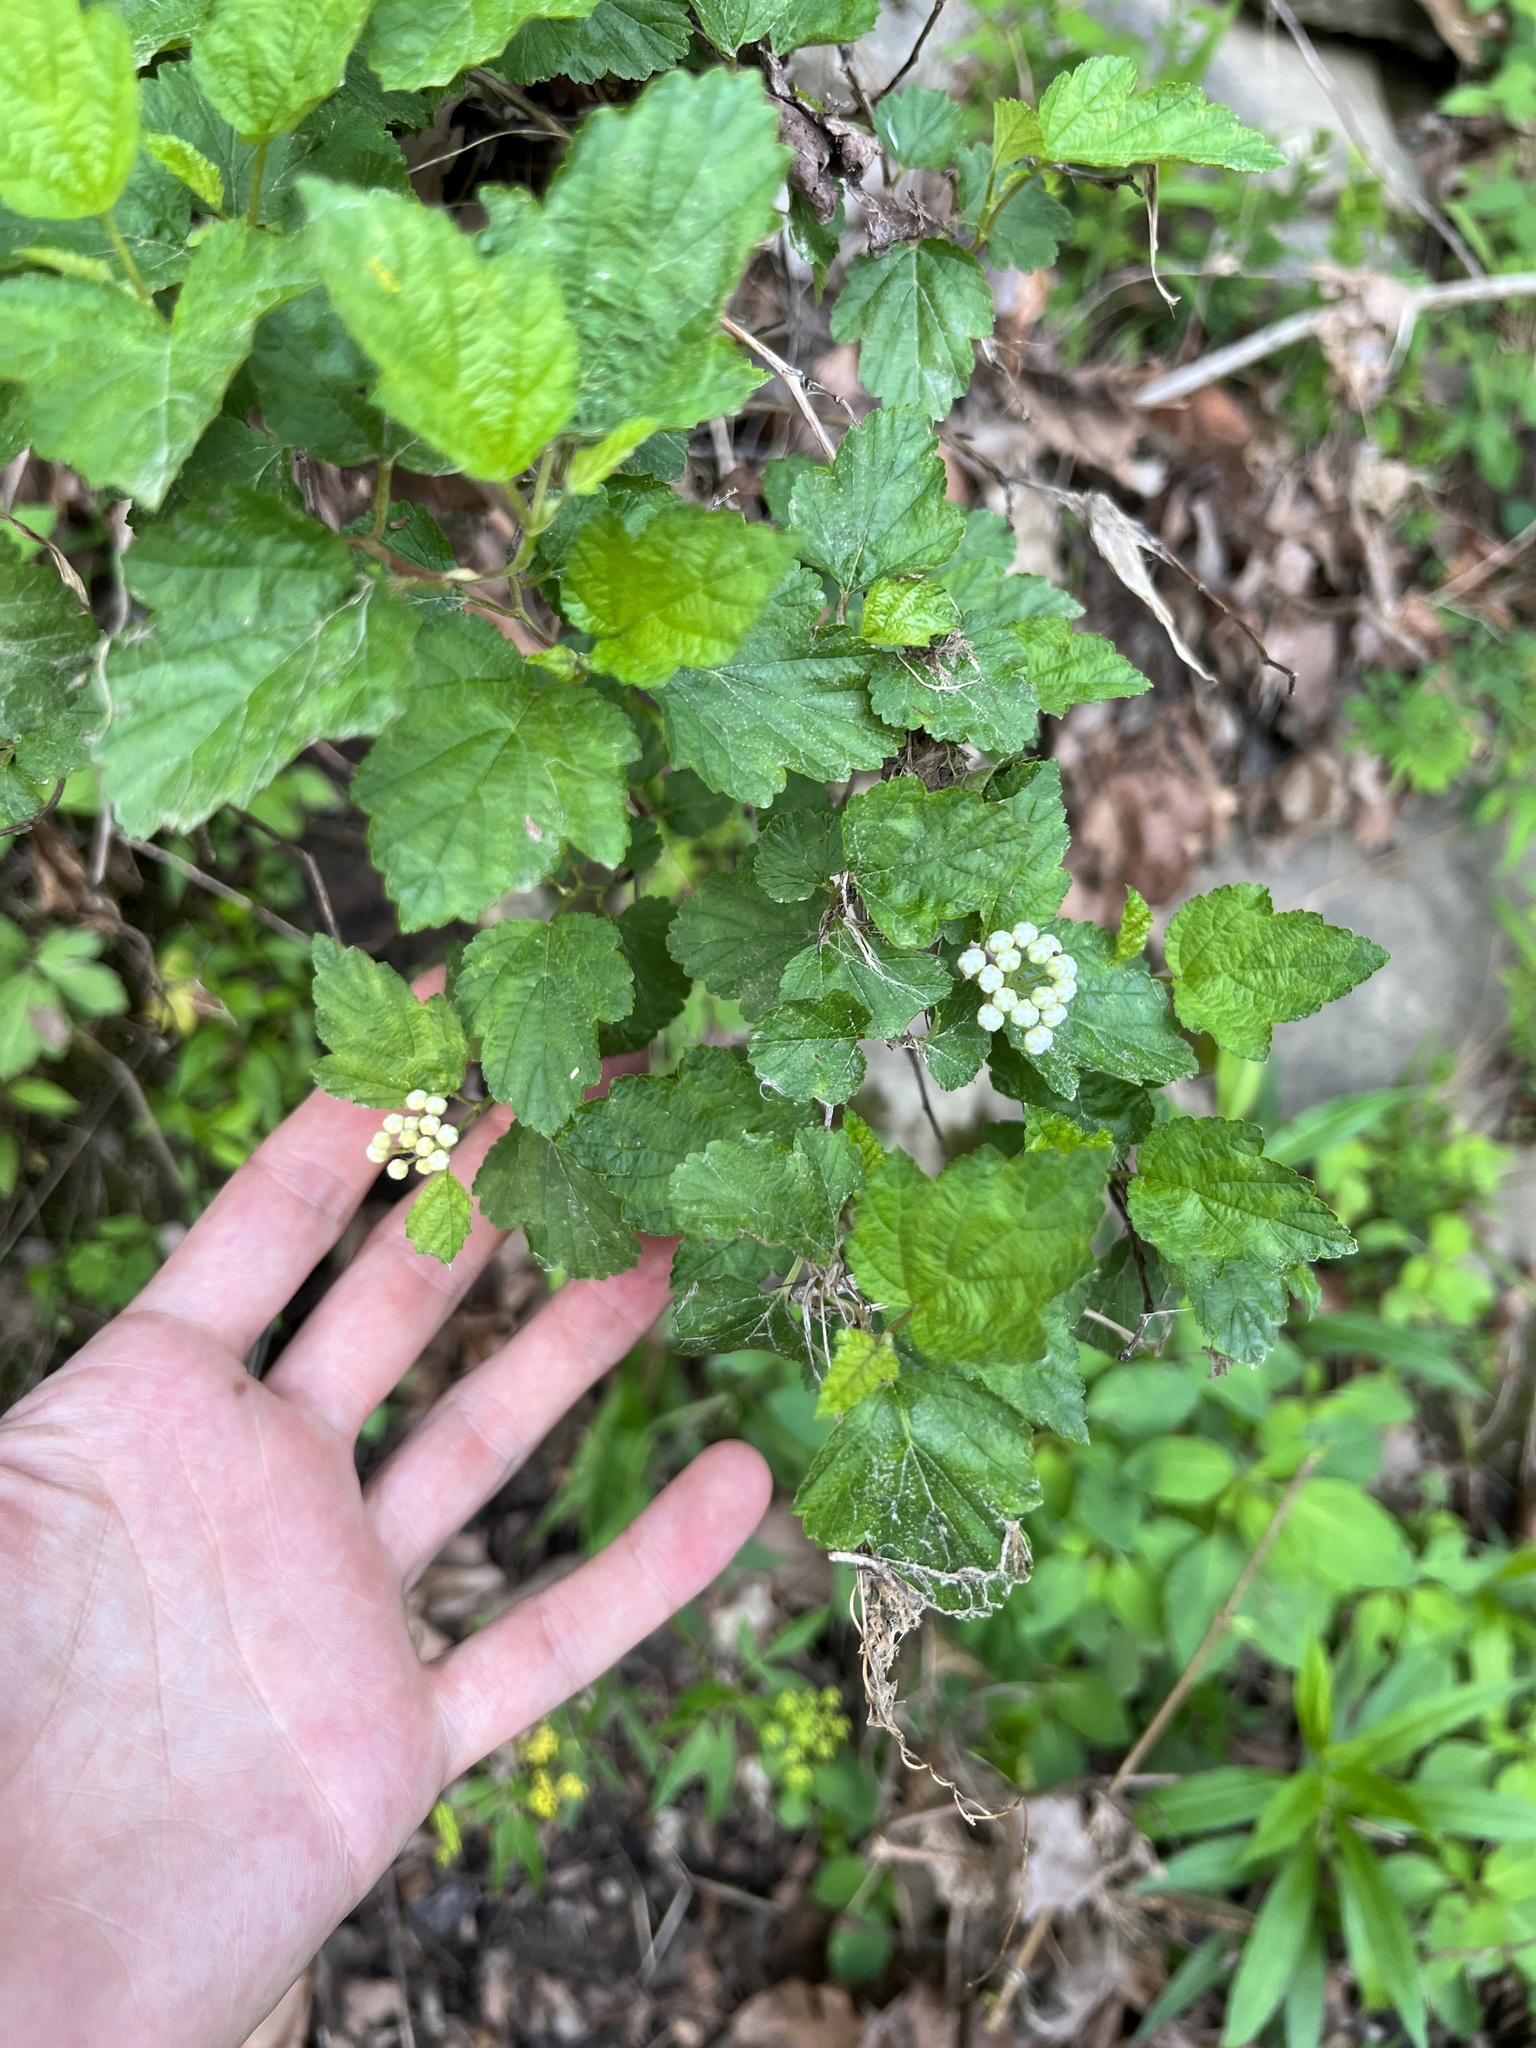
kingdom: Plantae
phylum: Tracheophyta
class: Magnoliopsida
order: Rosales
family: Rosaceae
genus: Physocarpus
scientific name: Physocarpus opulifolius
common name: Ninebark
